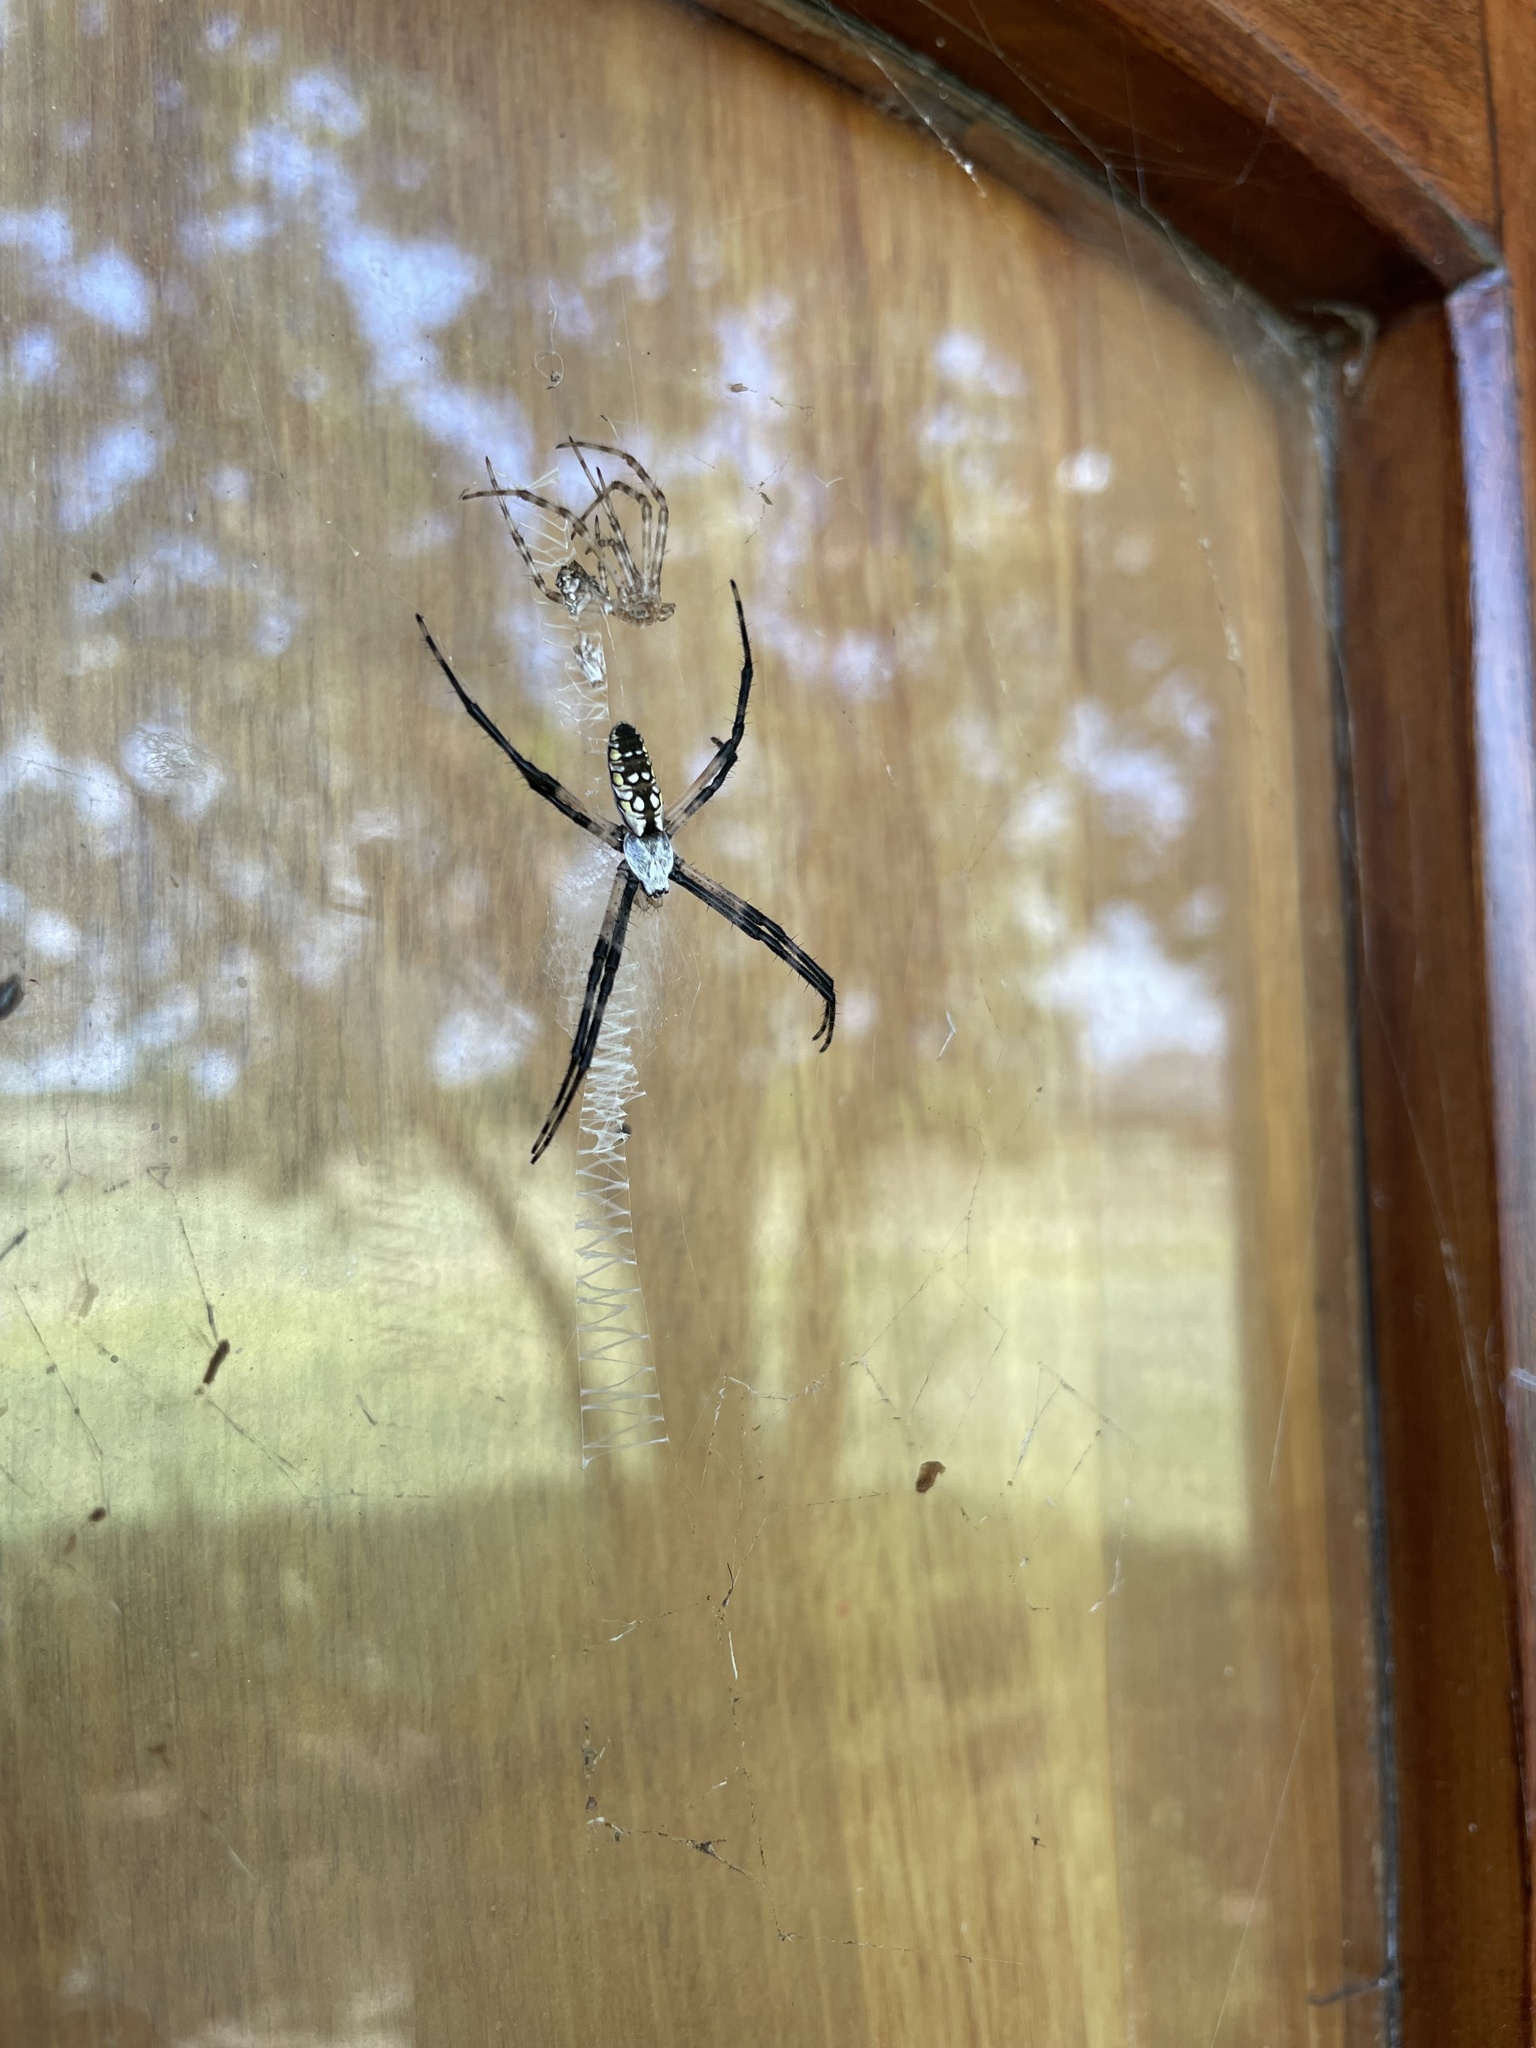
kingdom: Animalia
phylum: Arthropoda
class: Arachnida
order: Araneae
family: Araneidae
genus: Argiope
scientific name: Argiope aurantia
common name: Orb weavers
